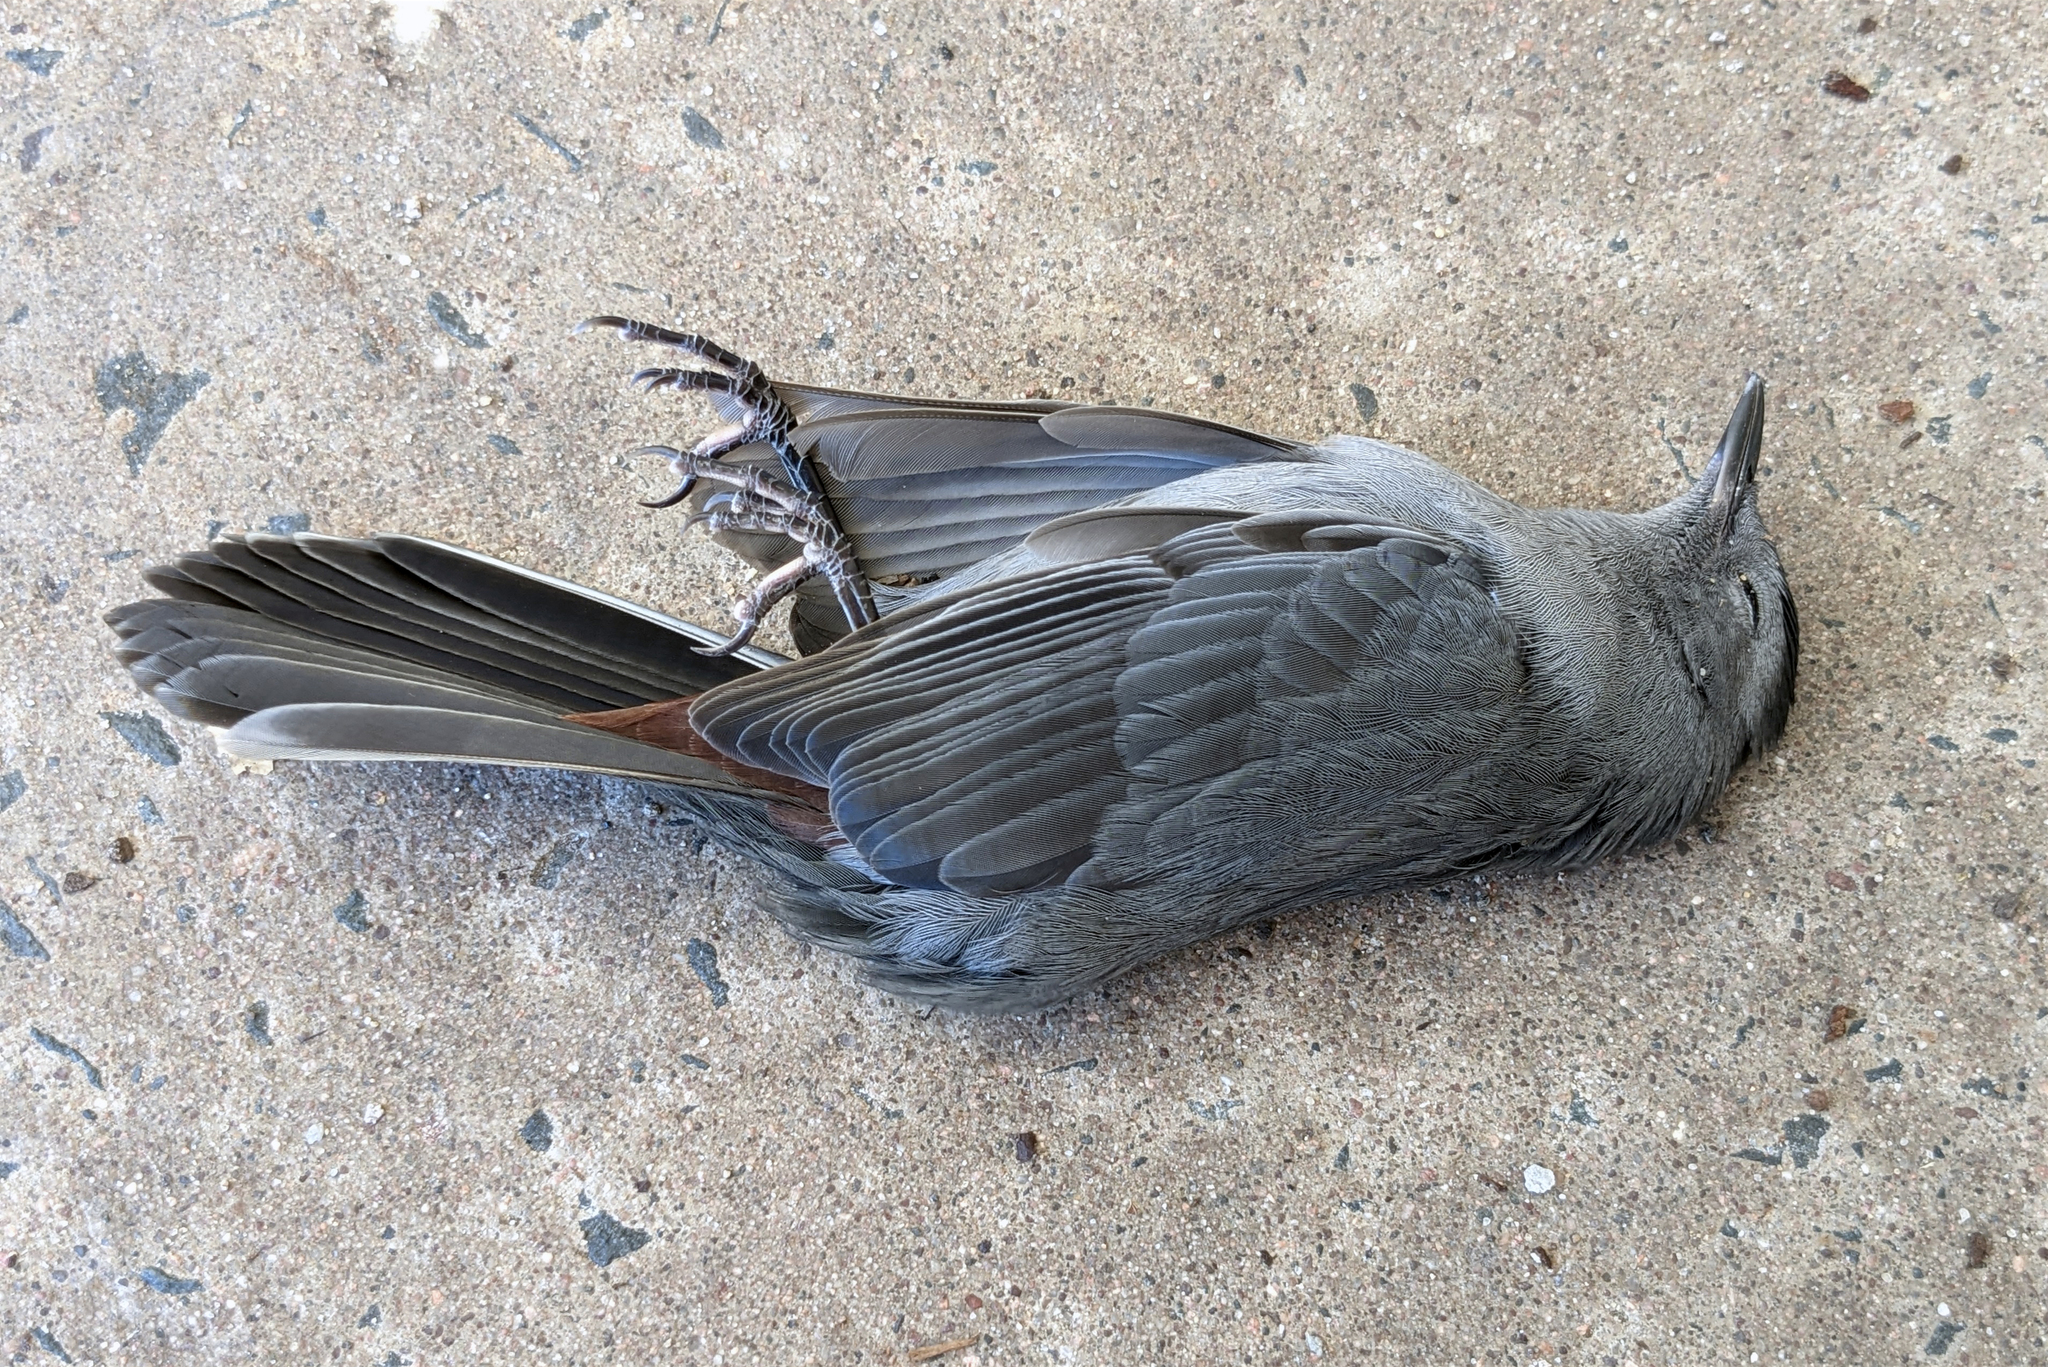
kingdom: Animalia
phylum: Chordata
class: Aves
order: Passeriformes
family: Mimidae
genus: Dumetella
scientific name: Dumetella carolinensis
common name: Gray catbird
